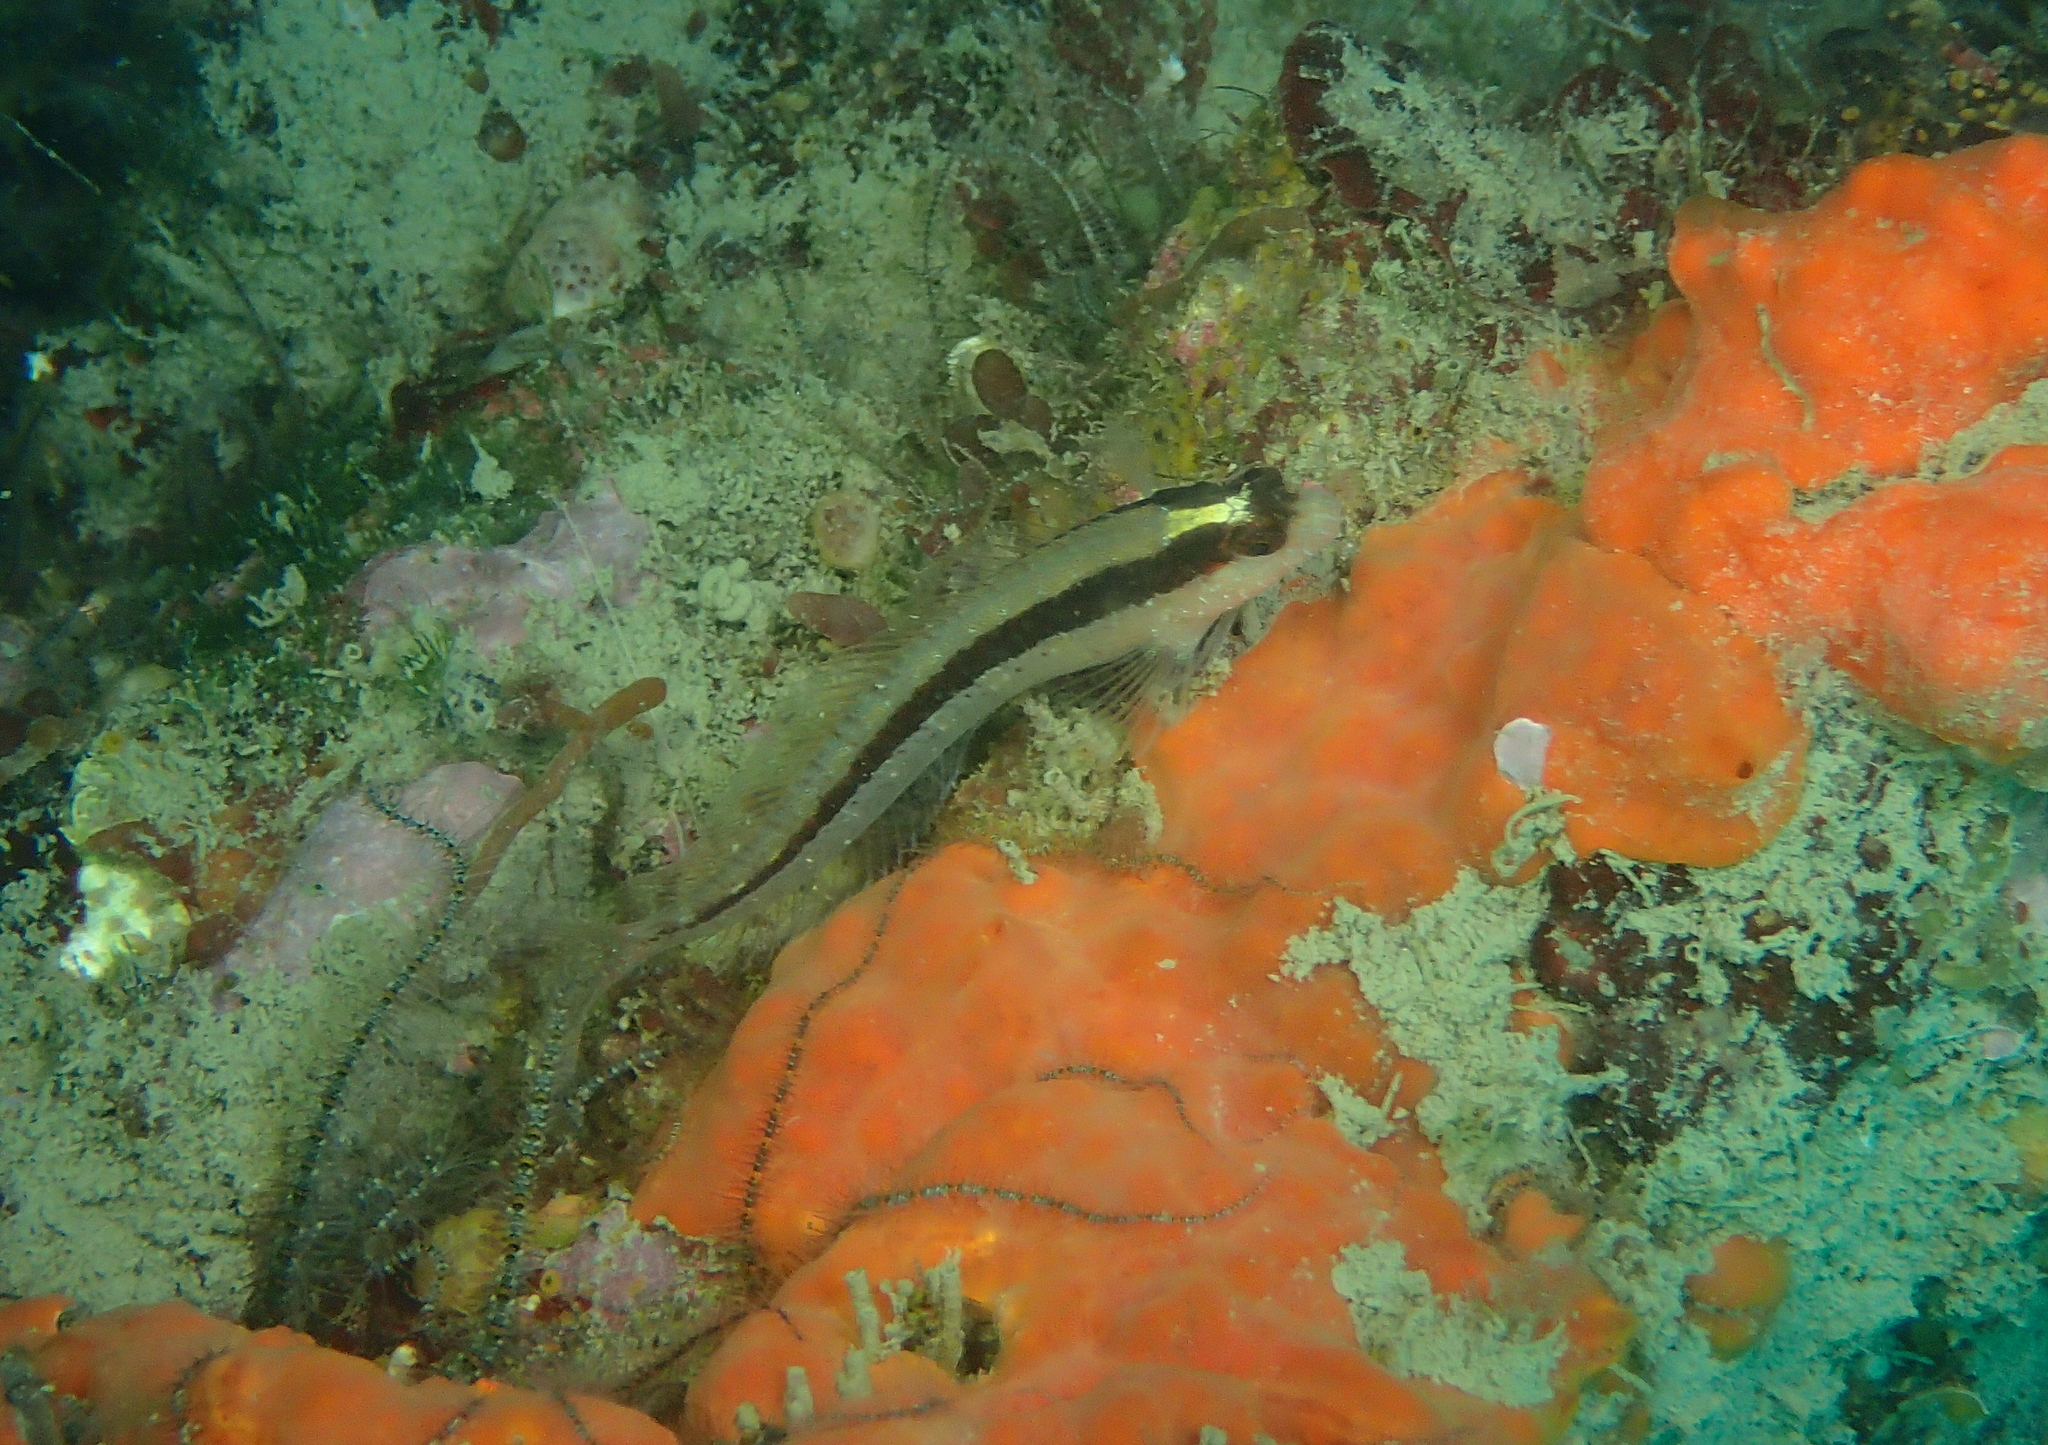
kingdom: Animalia
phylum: Chordata
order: Perciformes
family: Blenniidae
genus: Parablennius
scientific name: Parablennius rouxi
